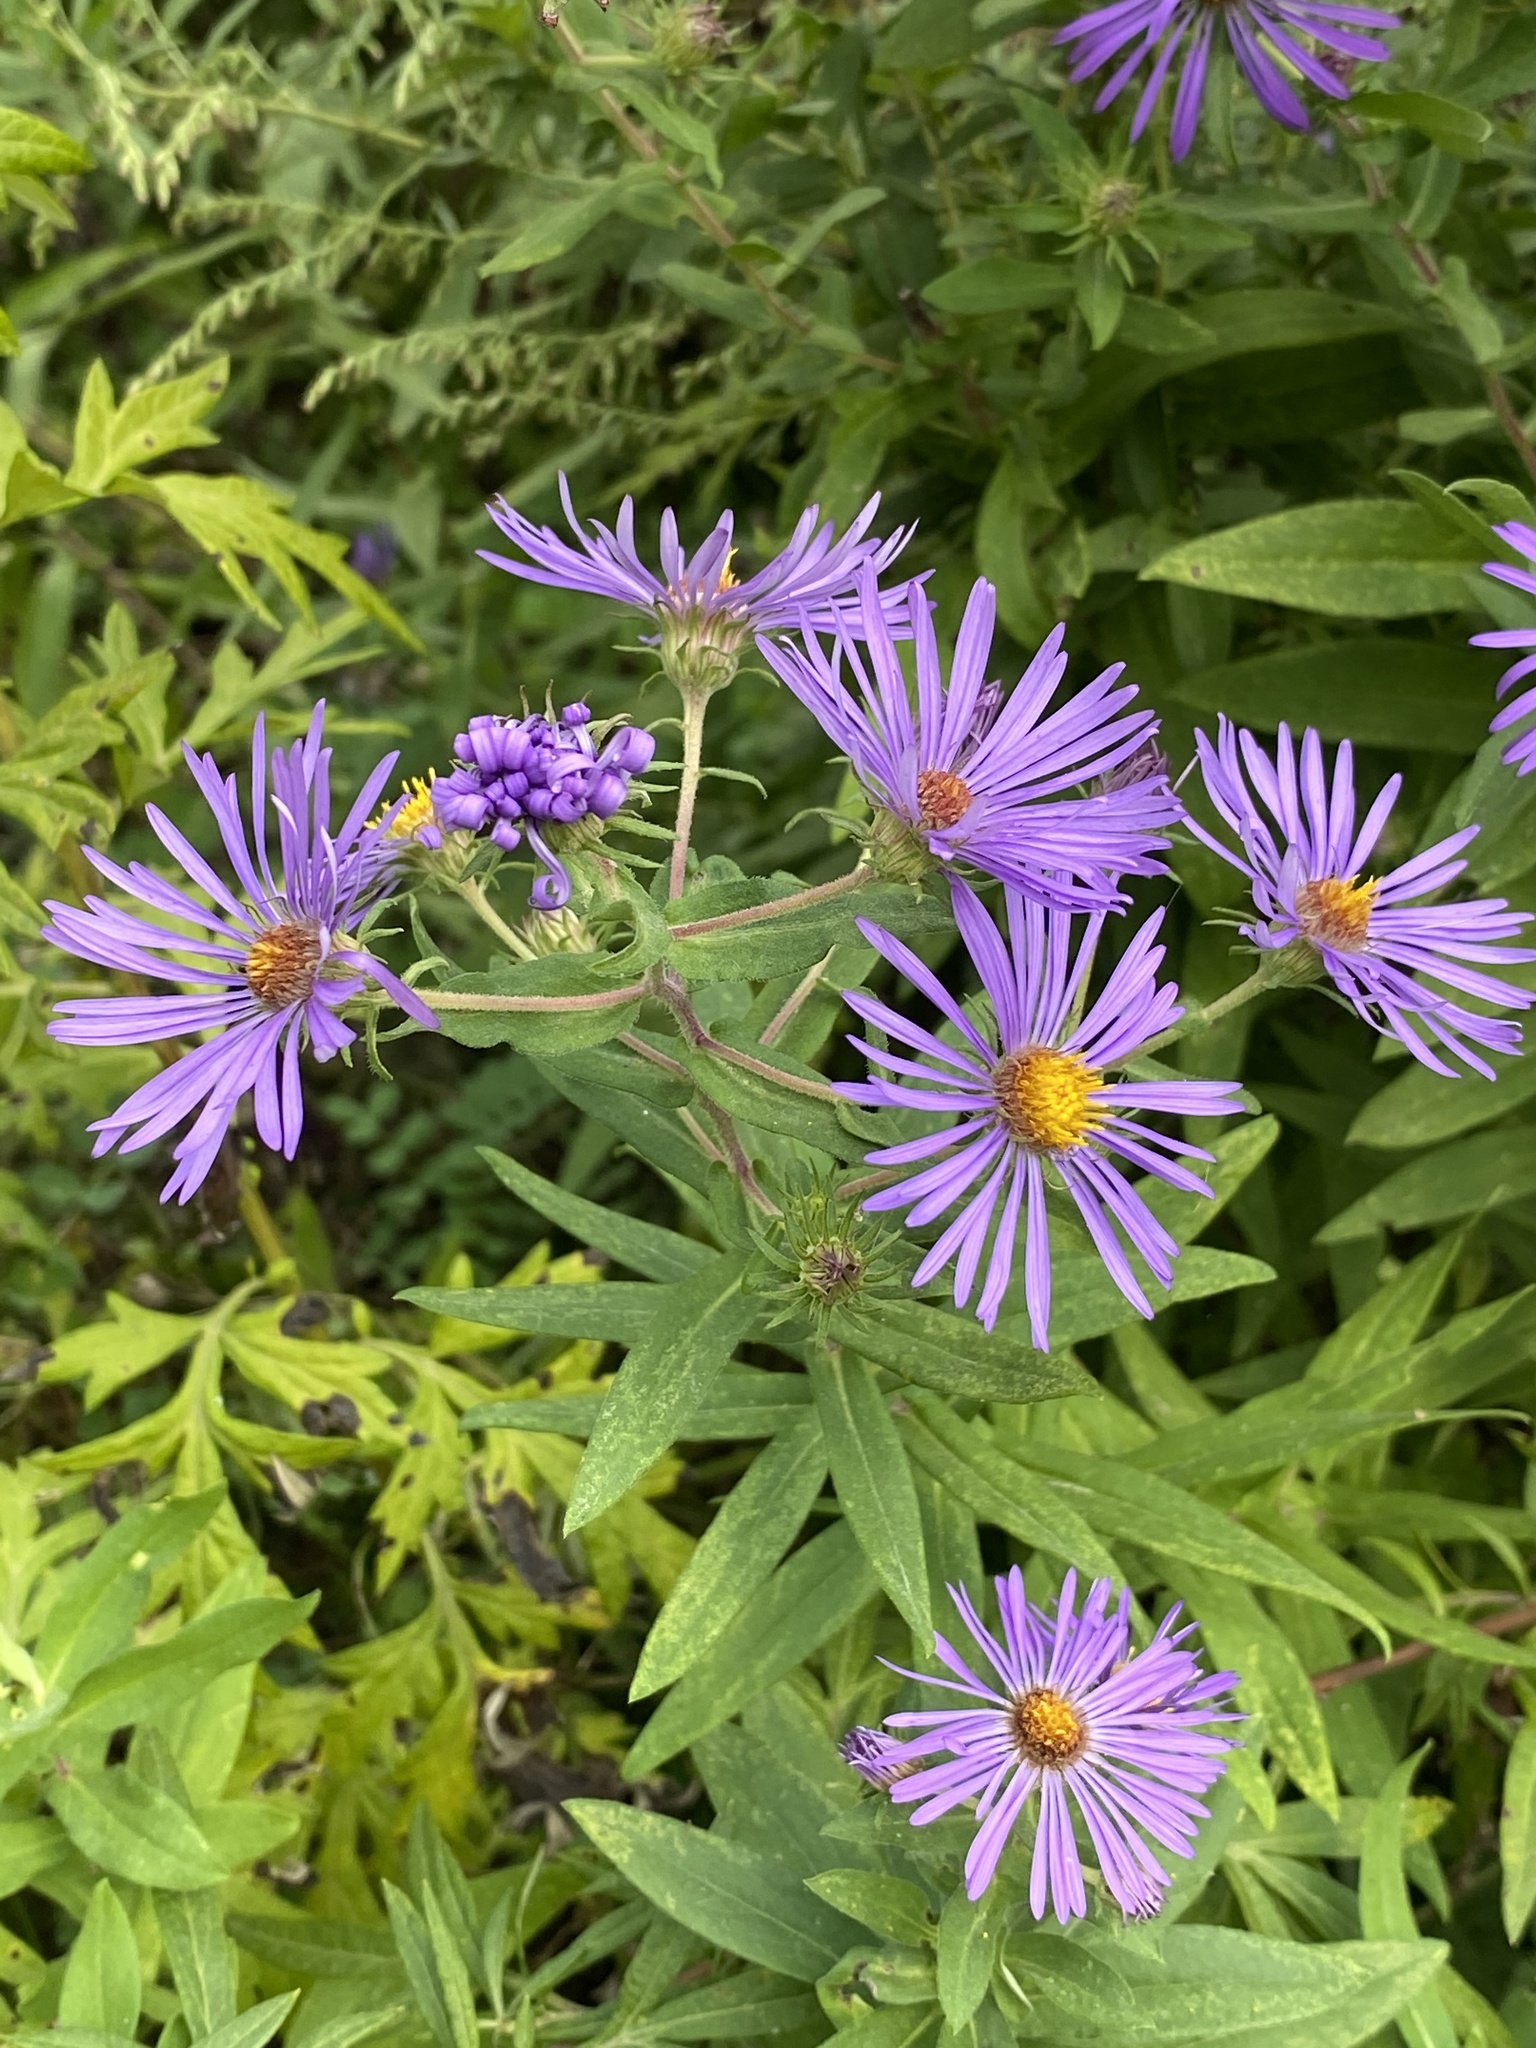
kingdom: Plantae
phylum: Tracheophyta
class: Magnoliopsida
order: Asterales
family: Asteraceae
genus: Symphyotrichum
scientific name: Symphyotrichum novae-angliae
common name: Michaelmas daisy
